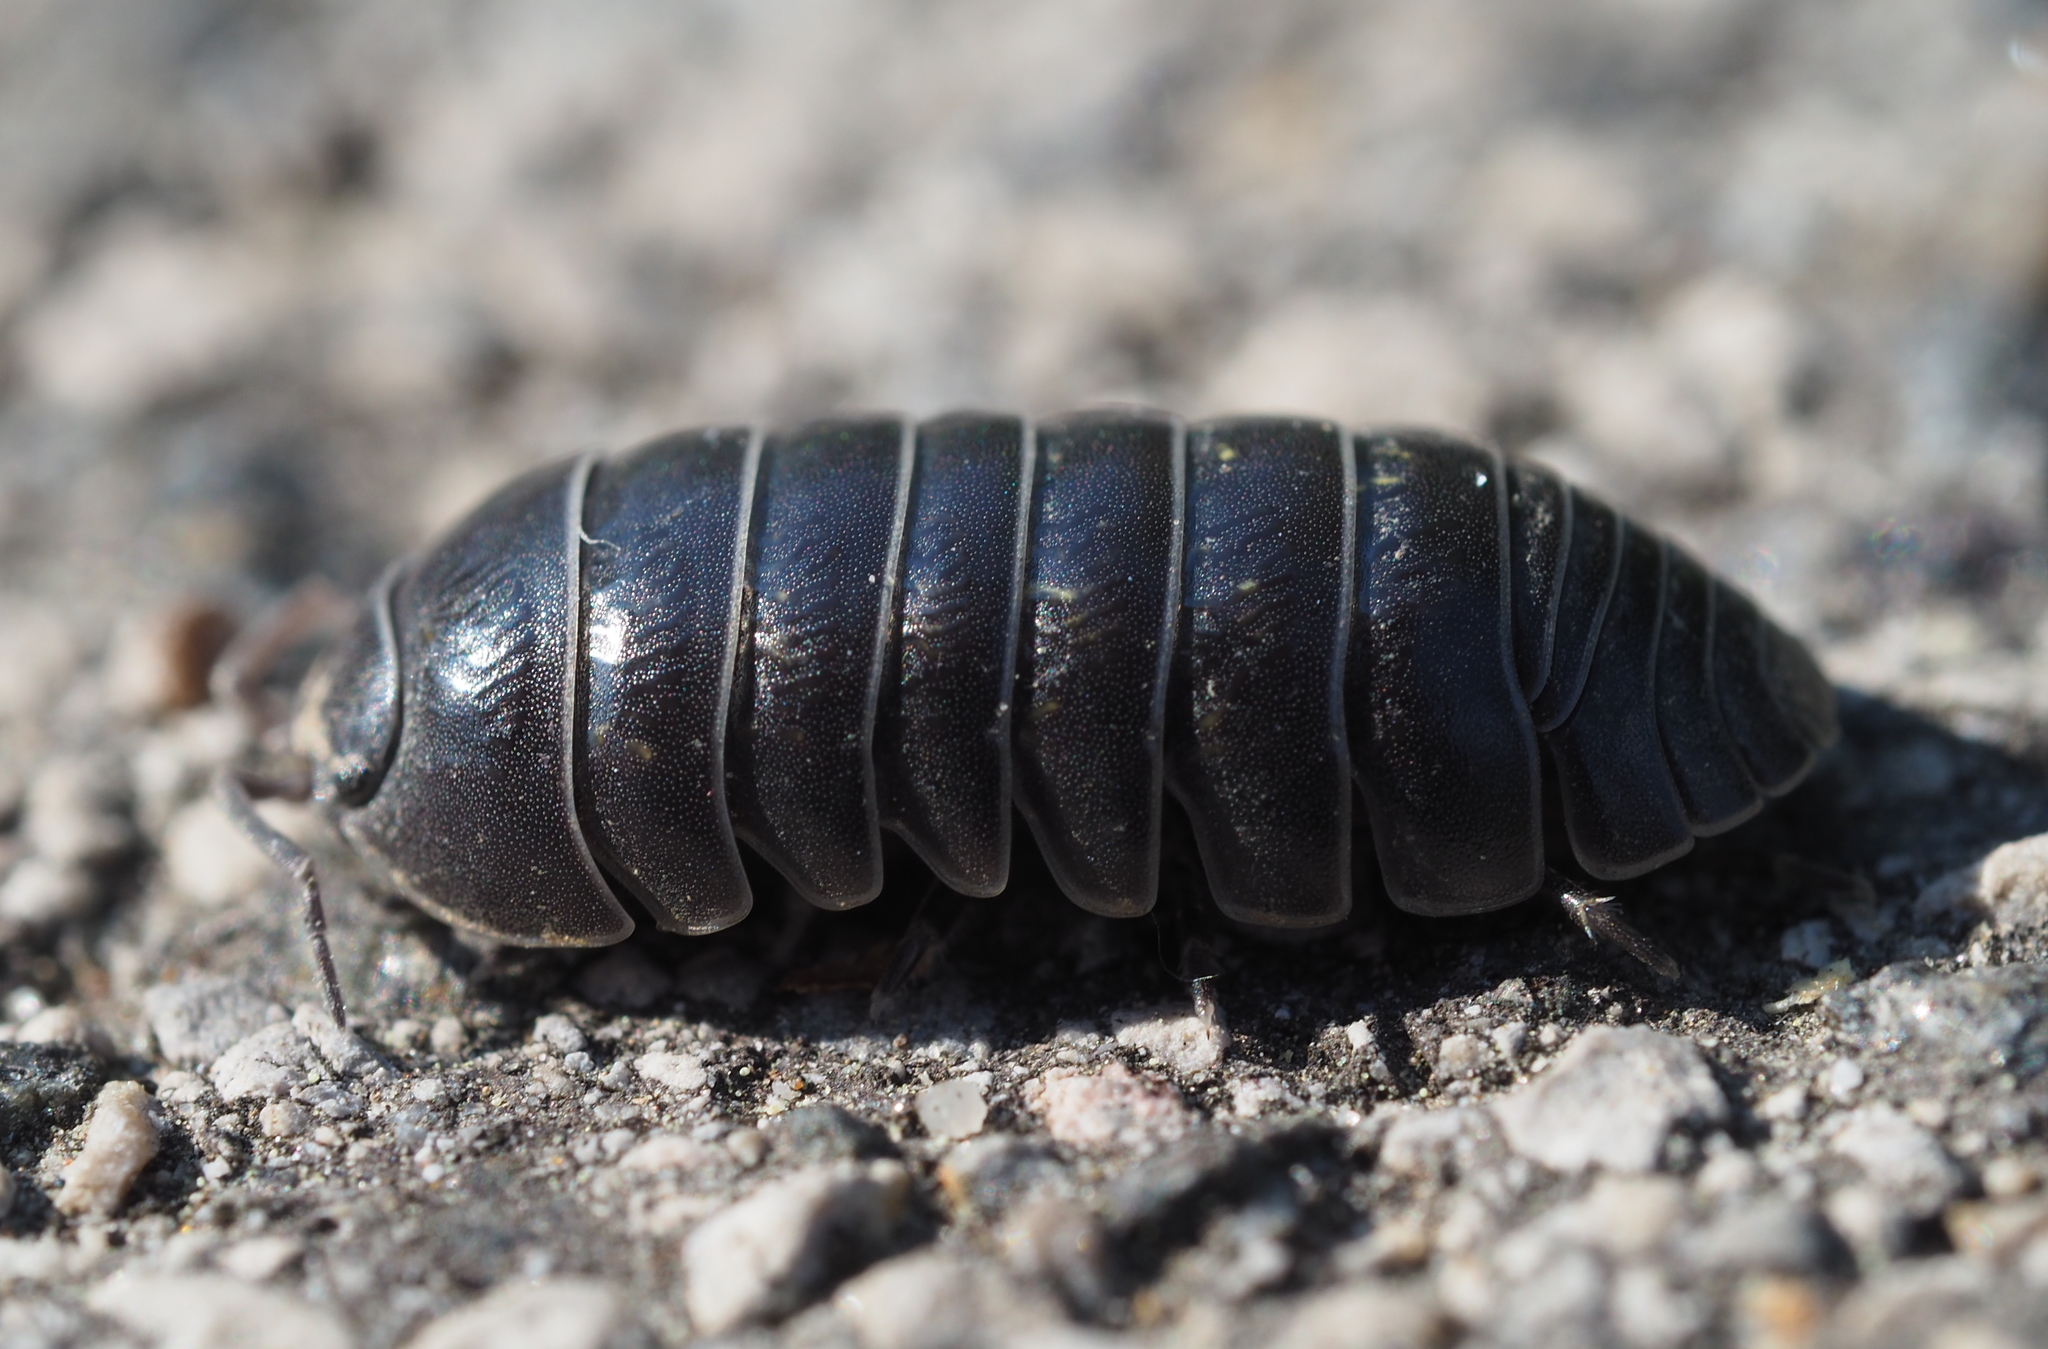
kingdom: Animalia
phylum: Arthropoda
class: Malacostraca
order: Isopoda
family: Armadillidiidae
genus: Armadillidium
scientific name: Armadillidium vulgare
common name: Common pill woodlouse
